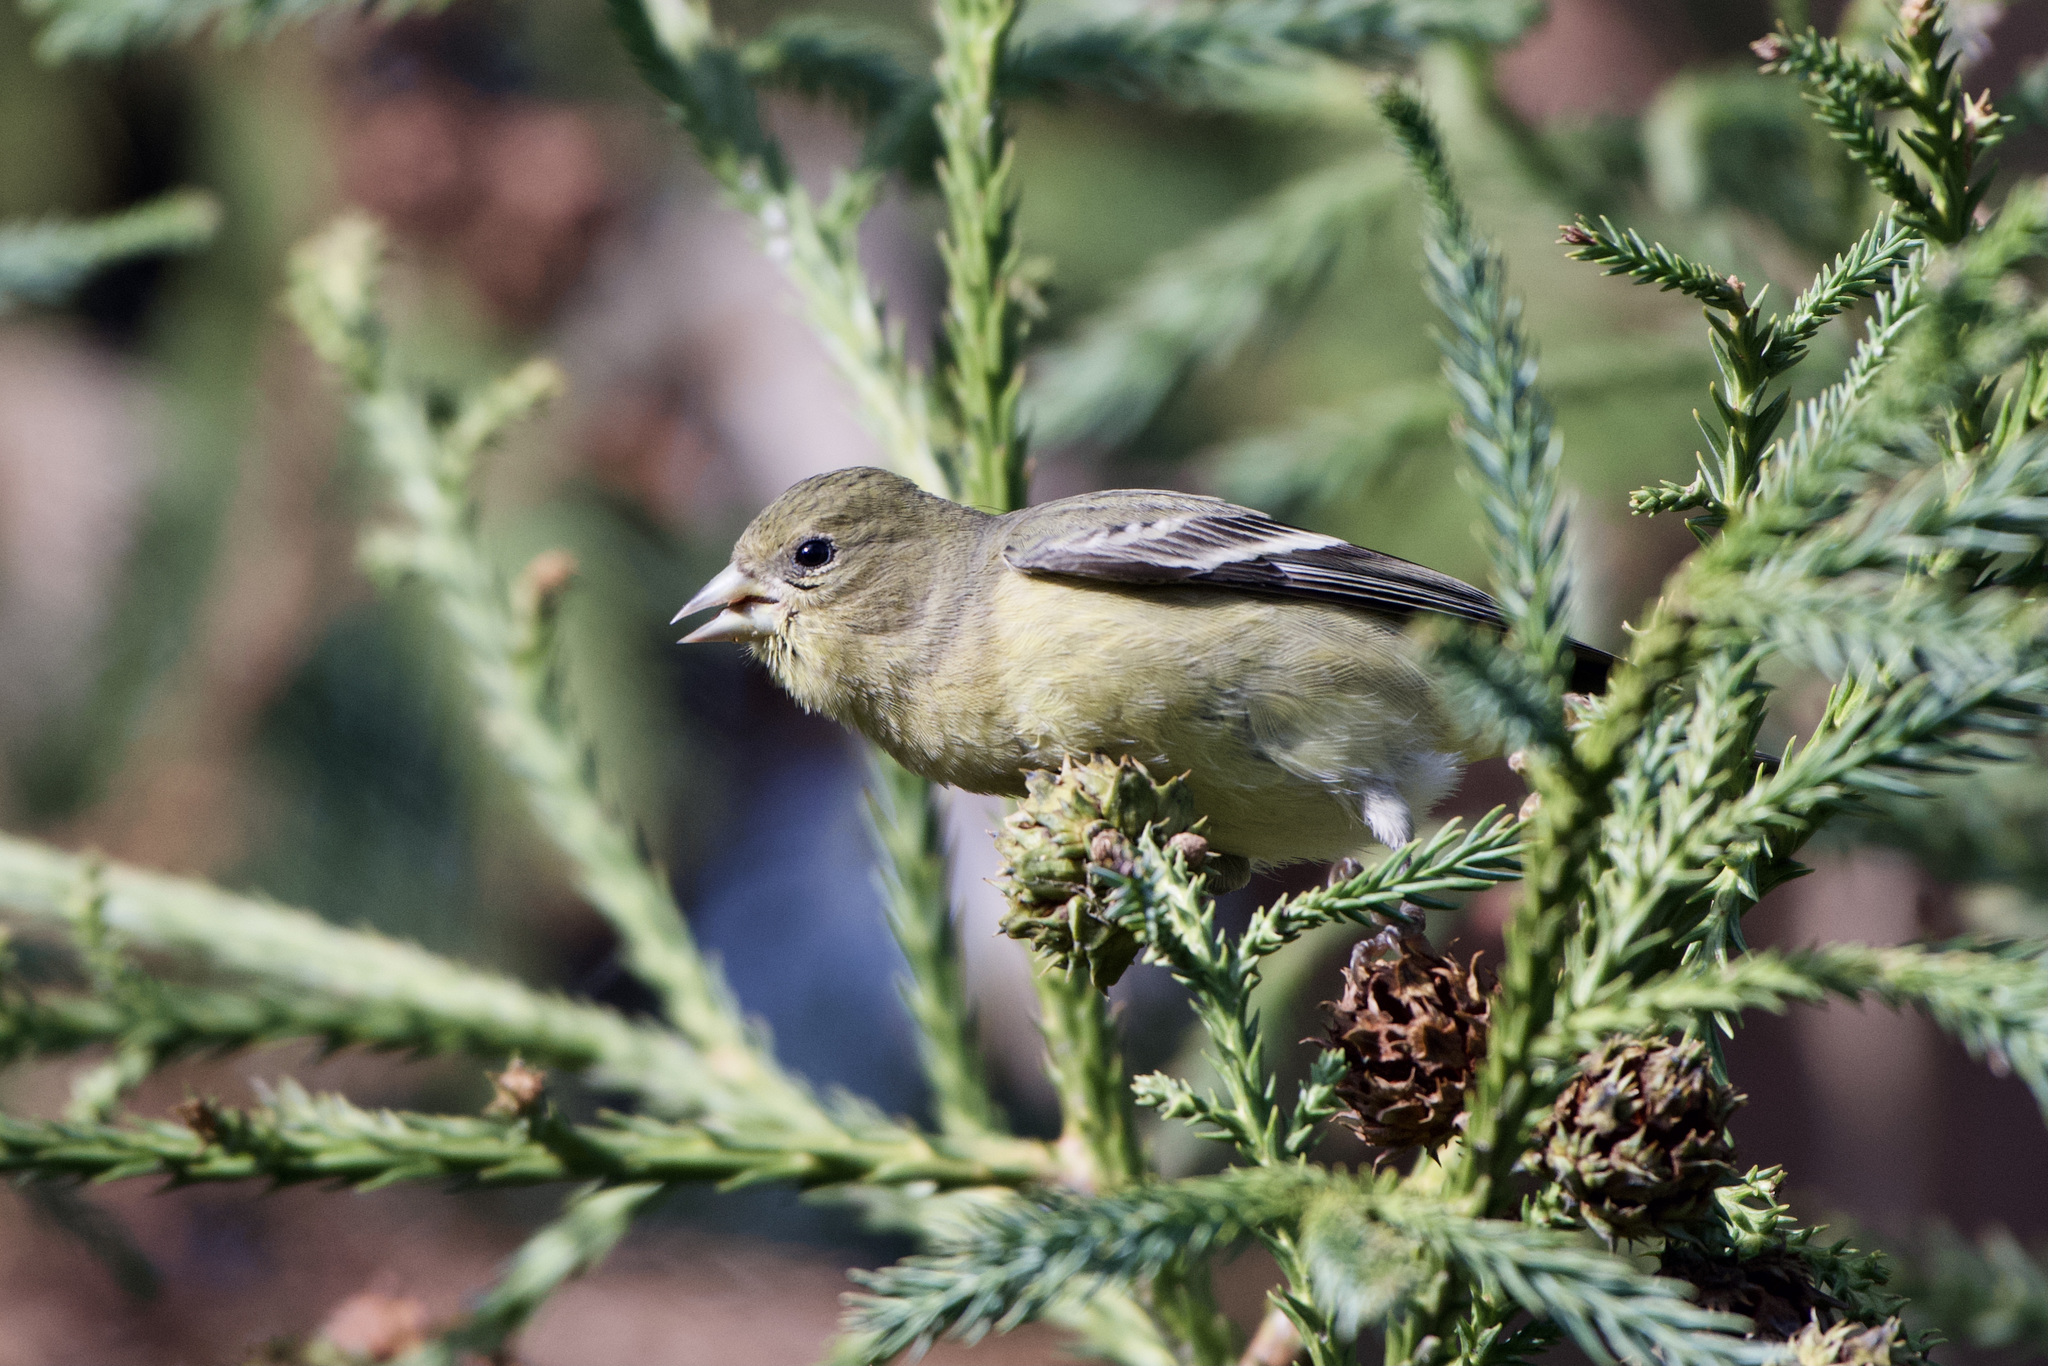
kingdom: Animalia
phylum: Chordata
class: Aves
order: Passeriformes
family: Fringillidae
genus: Spinus
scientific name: Spinus psaltria
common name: Lesser goldfinch
